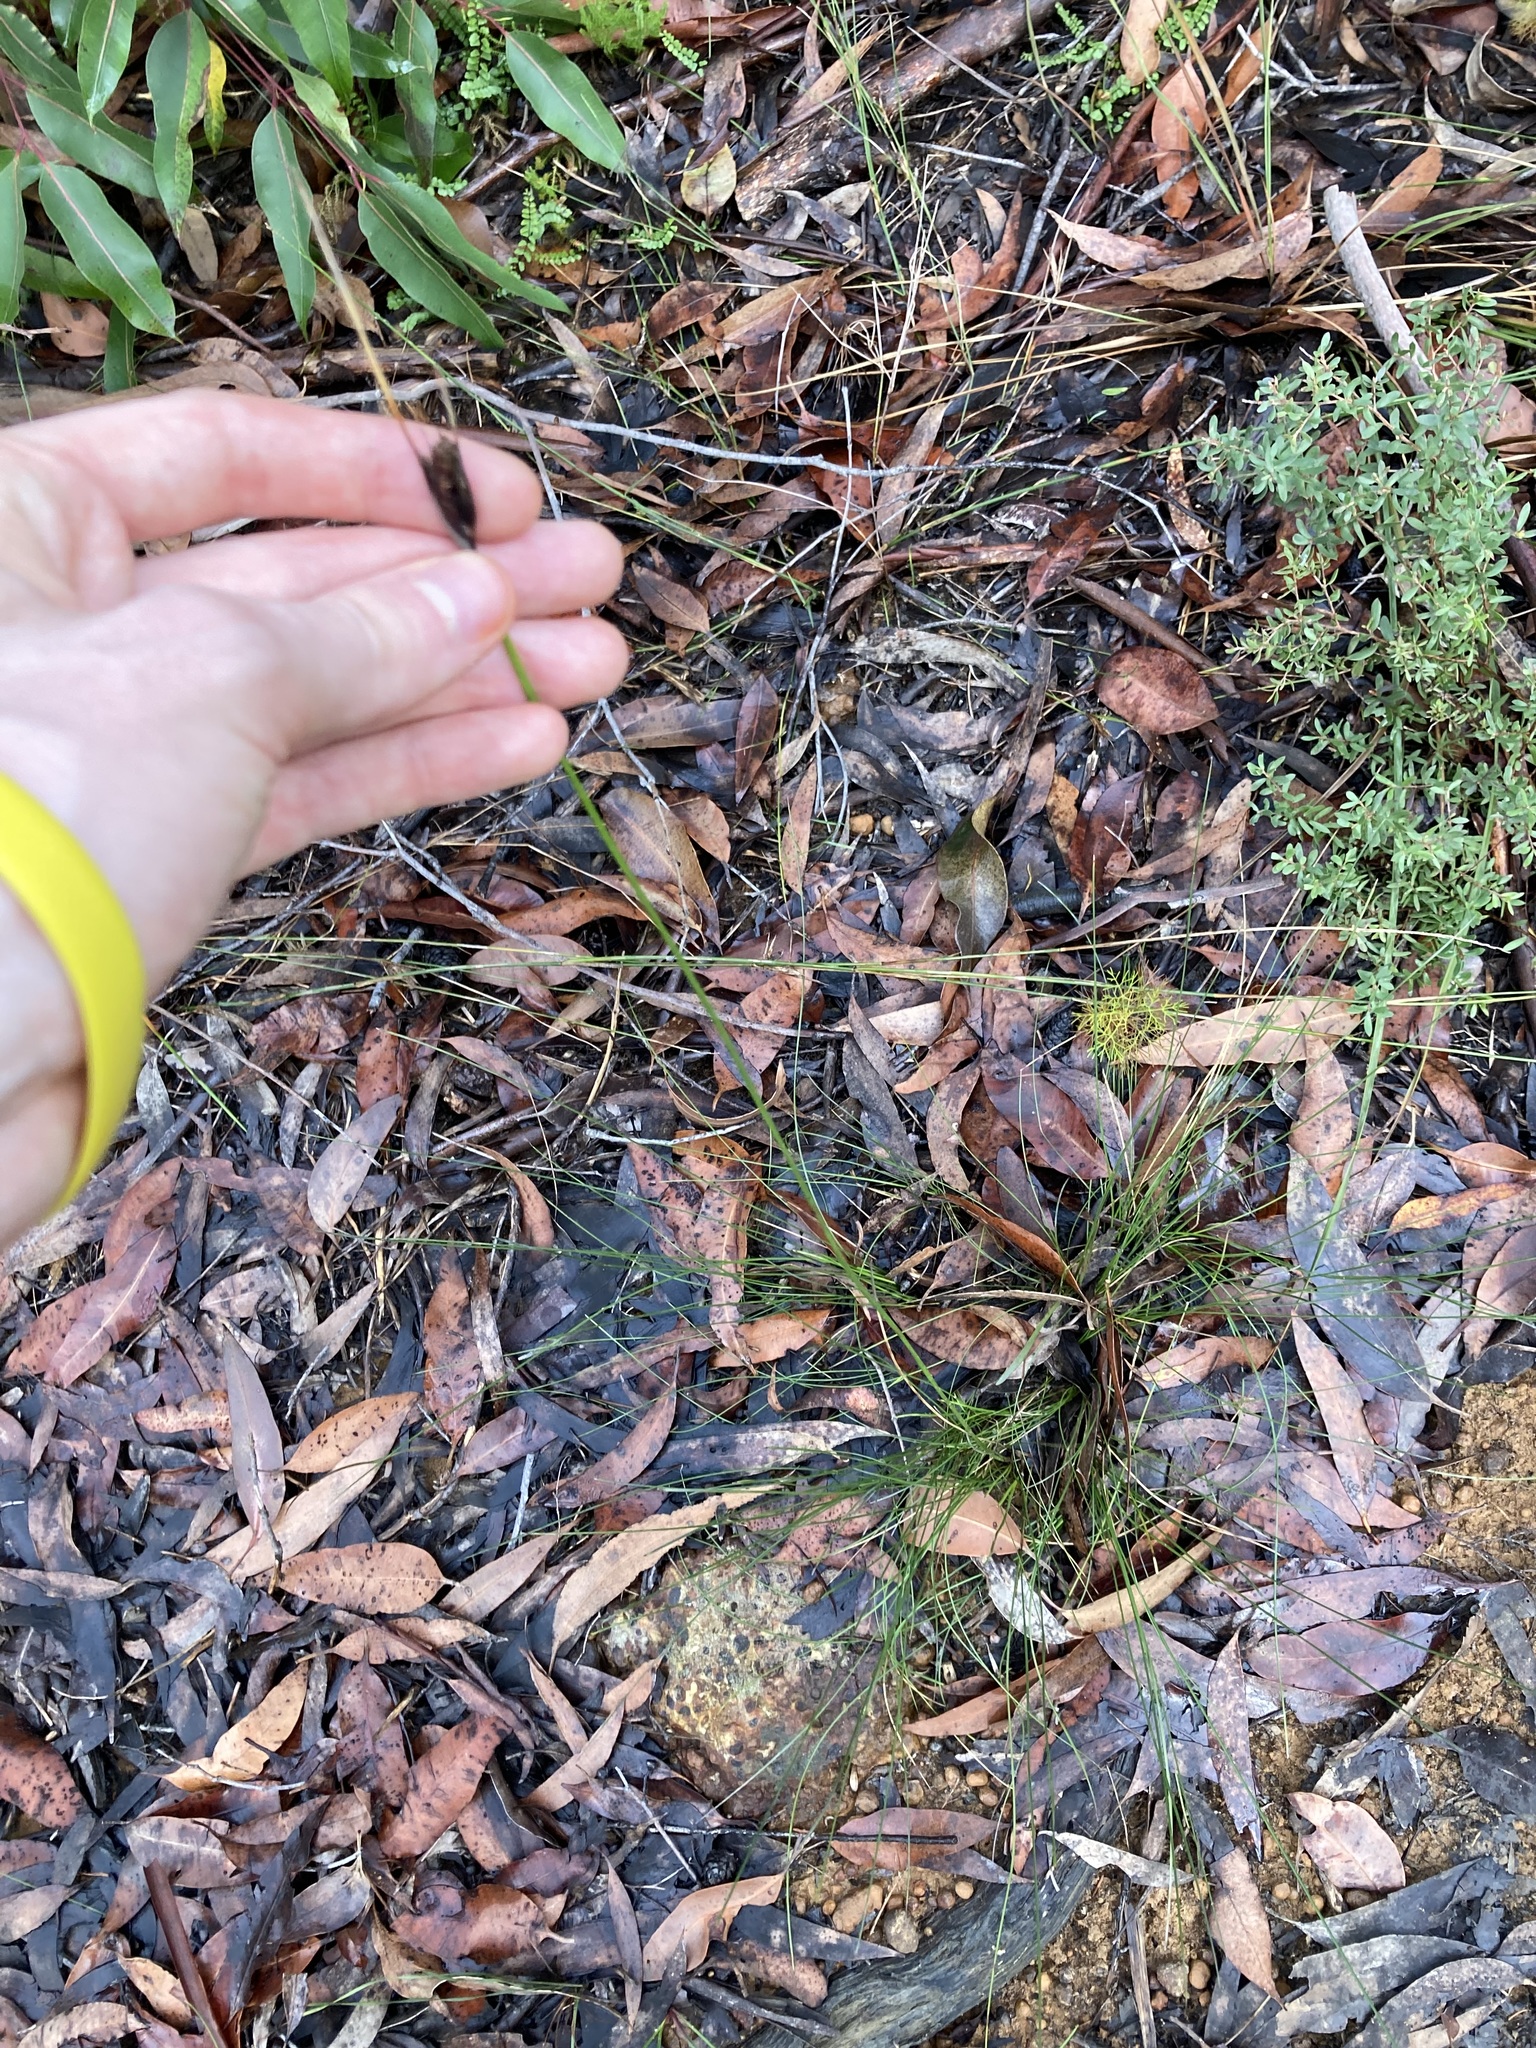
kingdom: Plantae
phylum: Tracheophyta
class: Liliopsida
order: Poales
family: Cyperaceae
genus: Ptilothrix
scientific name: Ptilothrix deusta
